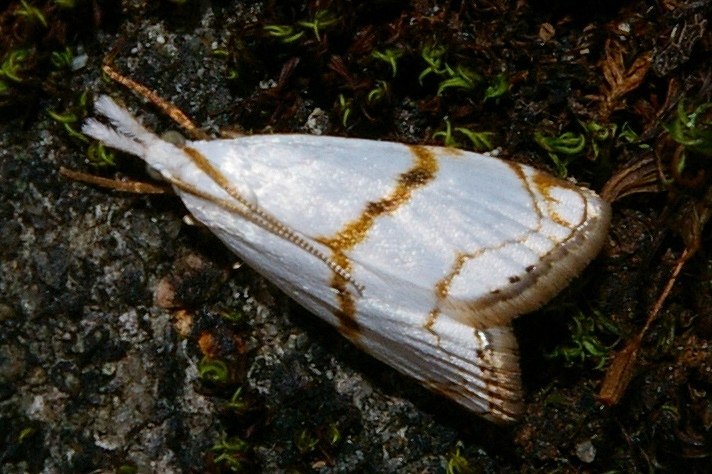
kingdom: Animalia
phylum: Arthropoda
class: Insecta
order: Lepidoptera
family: Crambidae
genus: Pseudargyria
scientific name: Pseudargyria interruptella
